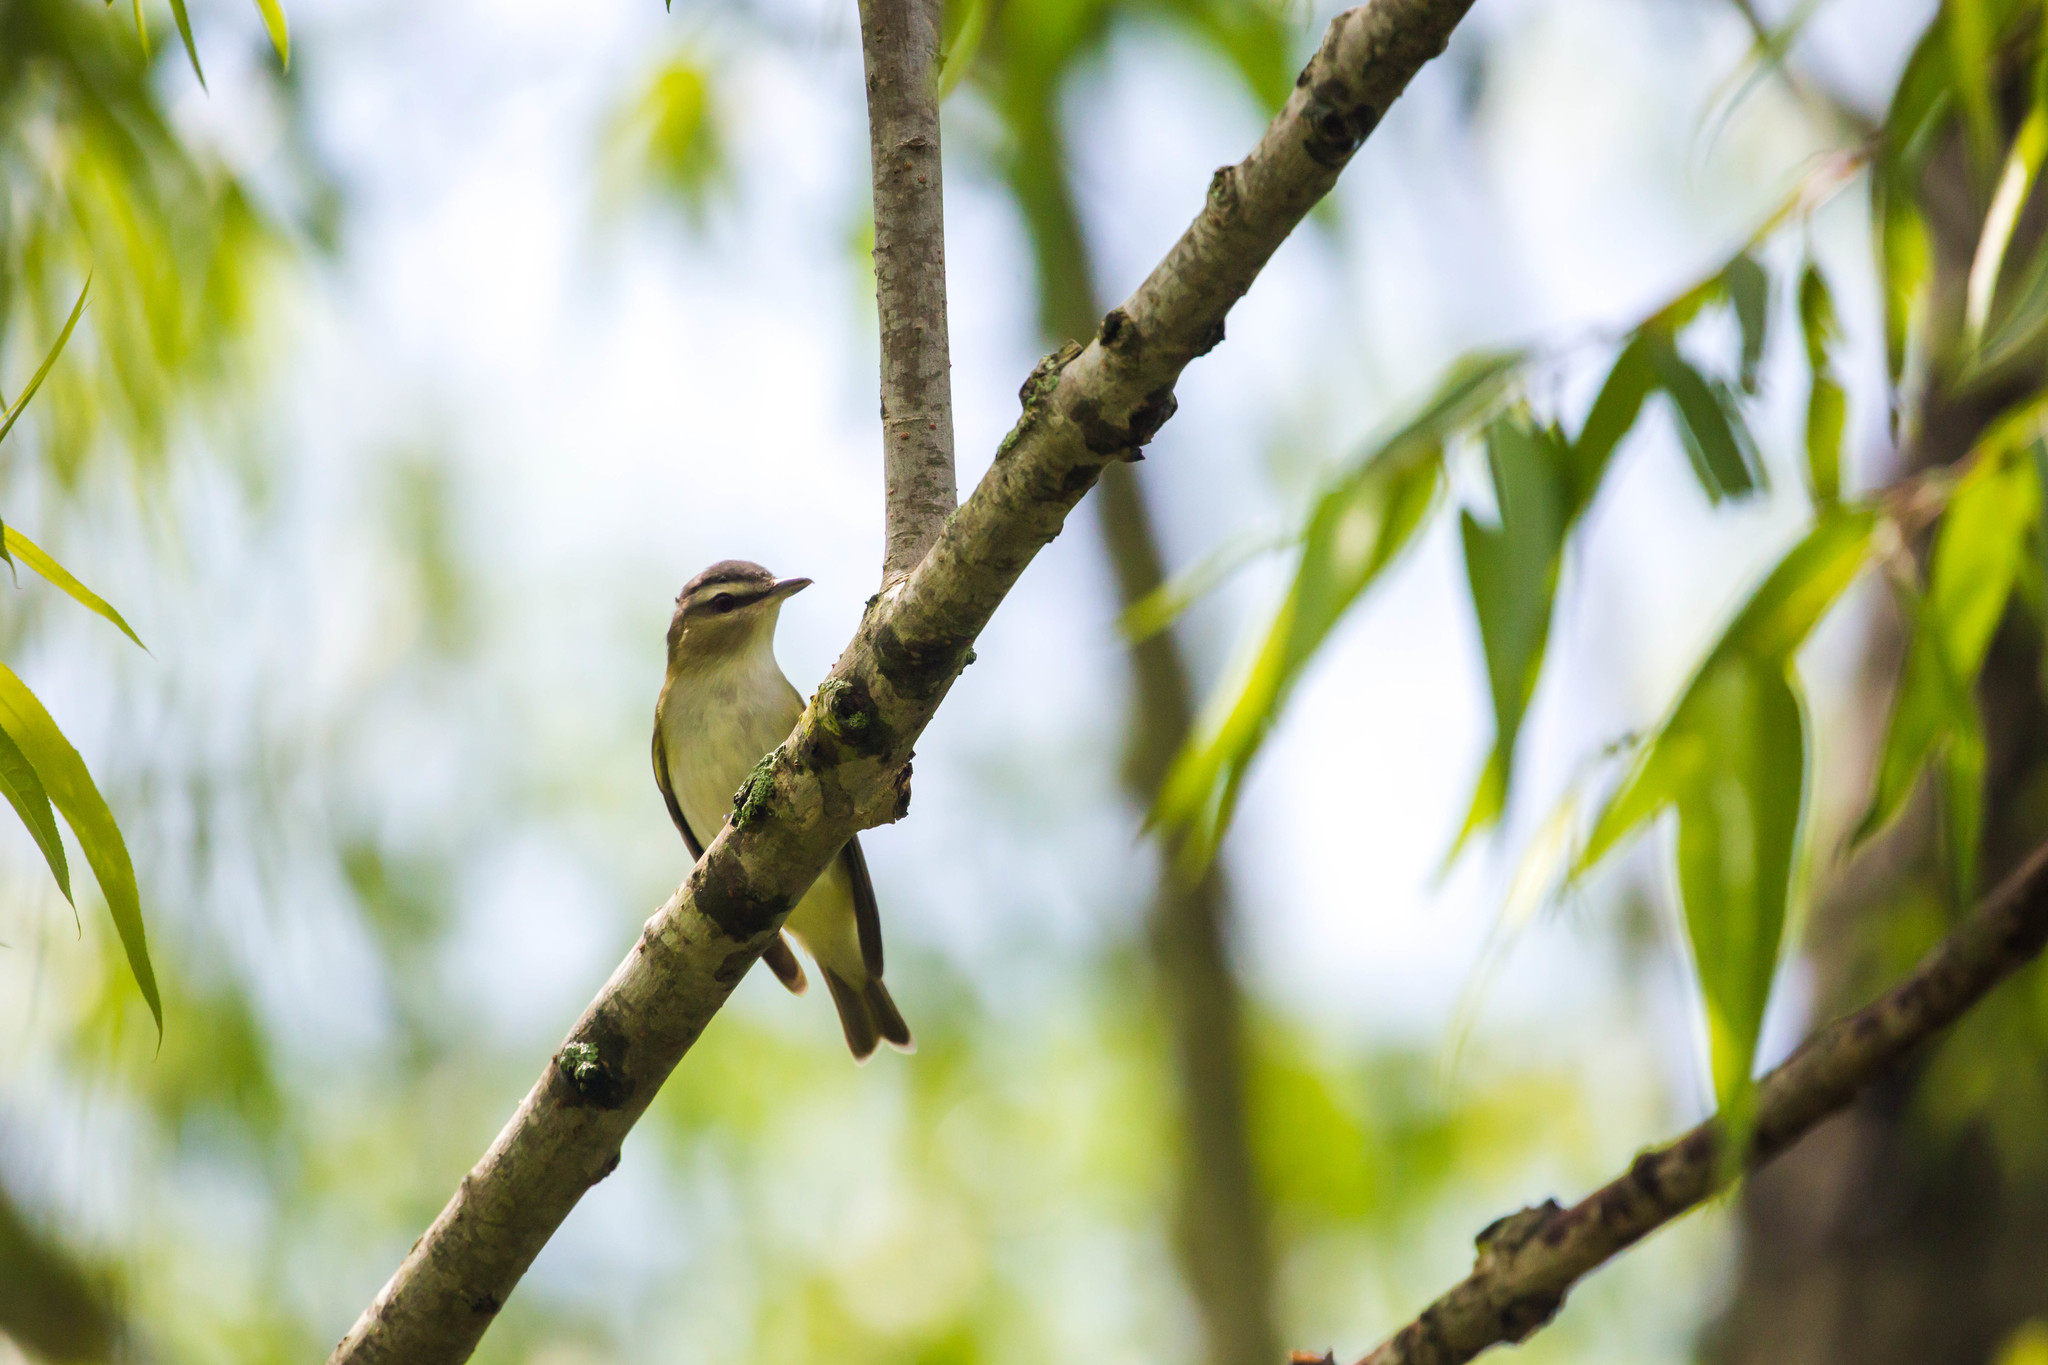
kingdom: Animalia
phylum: Chordata
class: Aves
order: Passeriformes
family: Vireonidae
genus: Vireo
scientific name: Vireo olivaceus
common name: Red-eyed vireo
